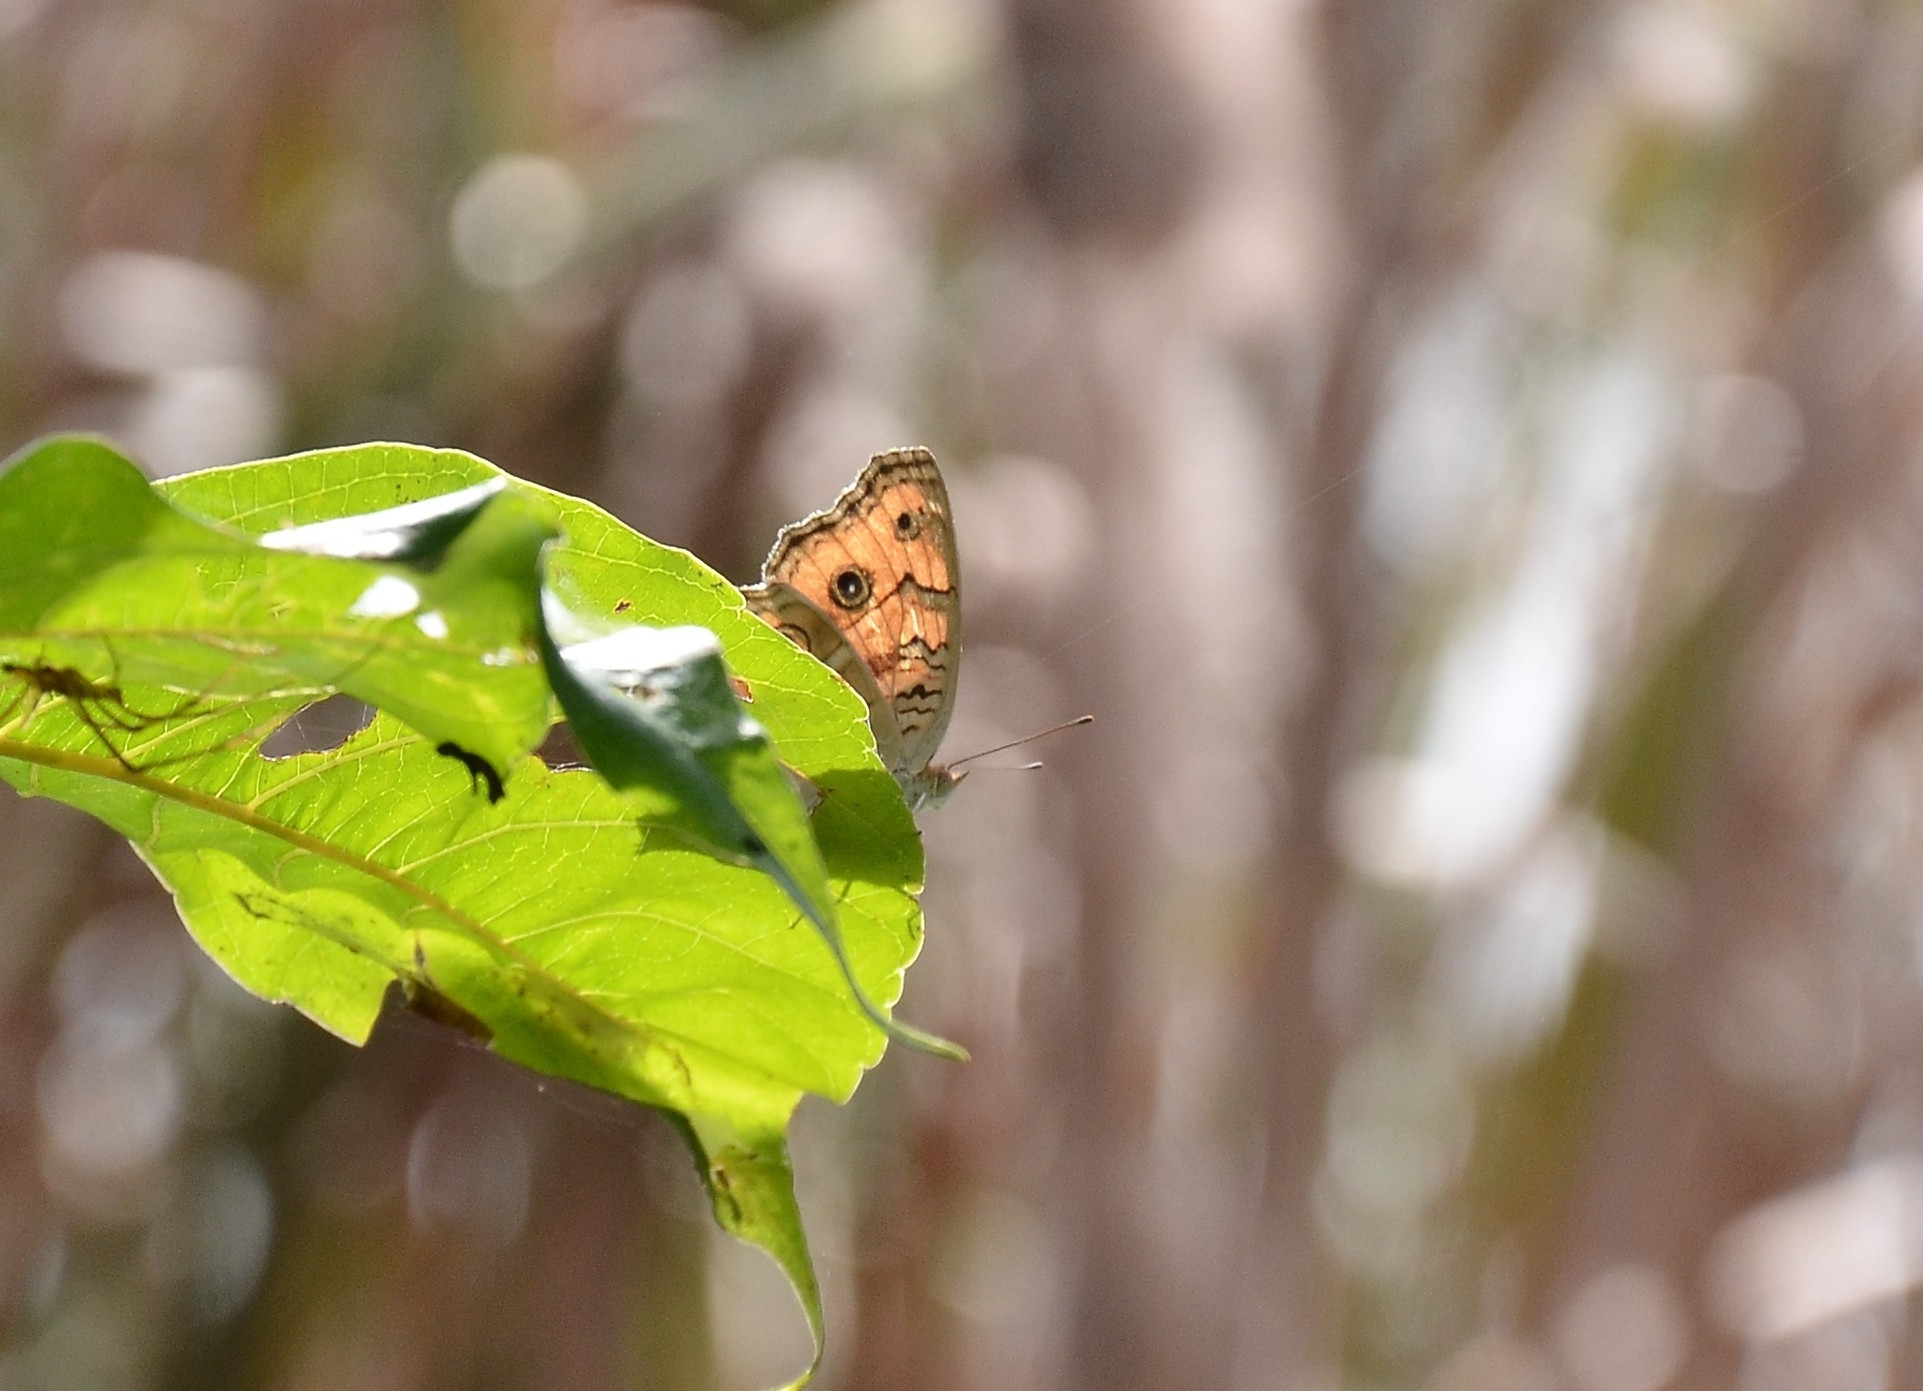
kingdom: Animalia
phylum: Arthropoda
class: Insecta
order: Lepidoptera
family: Nymphalidae
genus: Junonia
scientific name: Junonia almana
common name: Peacock pansy
